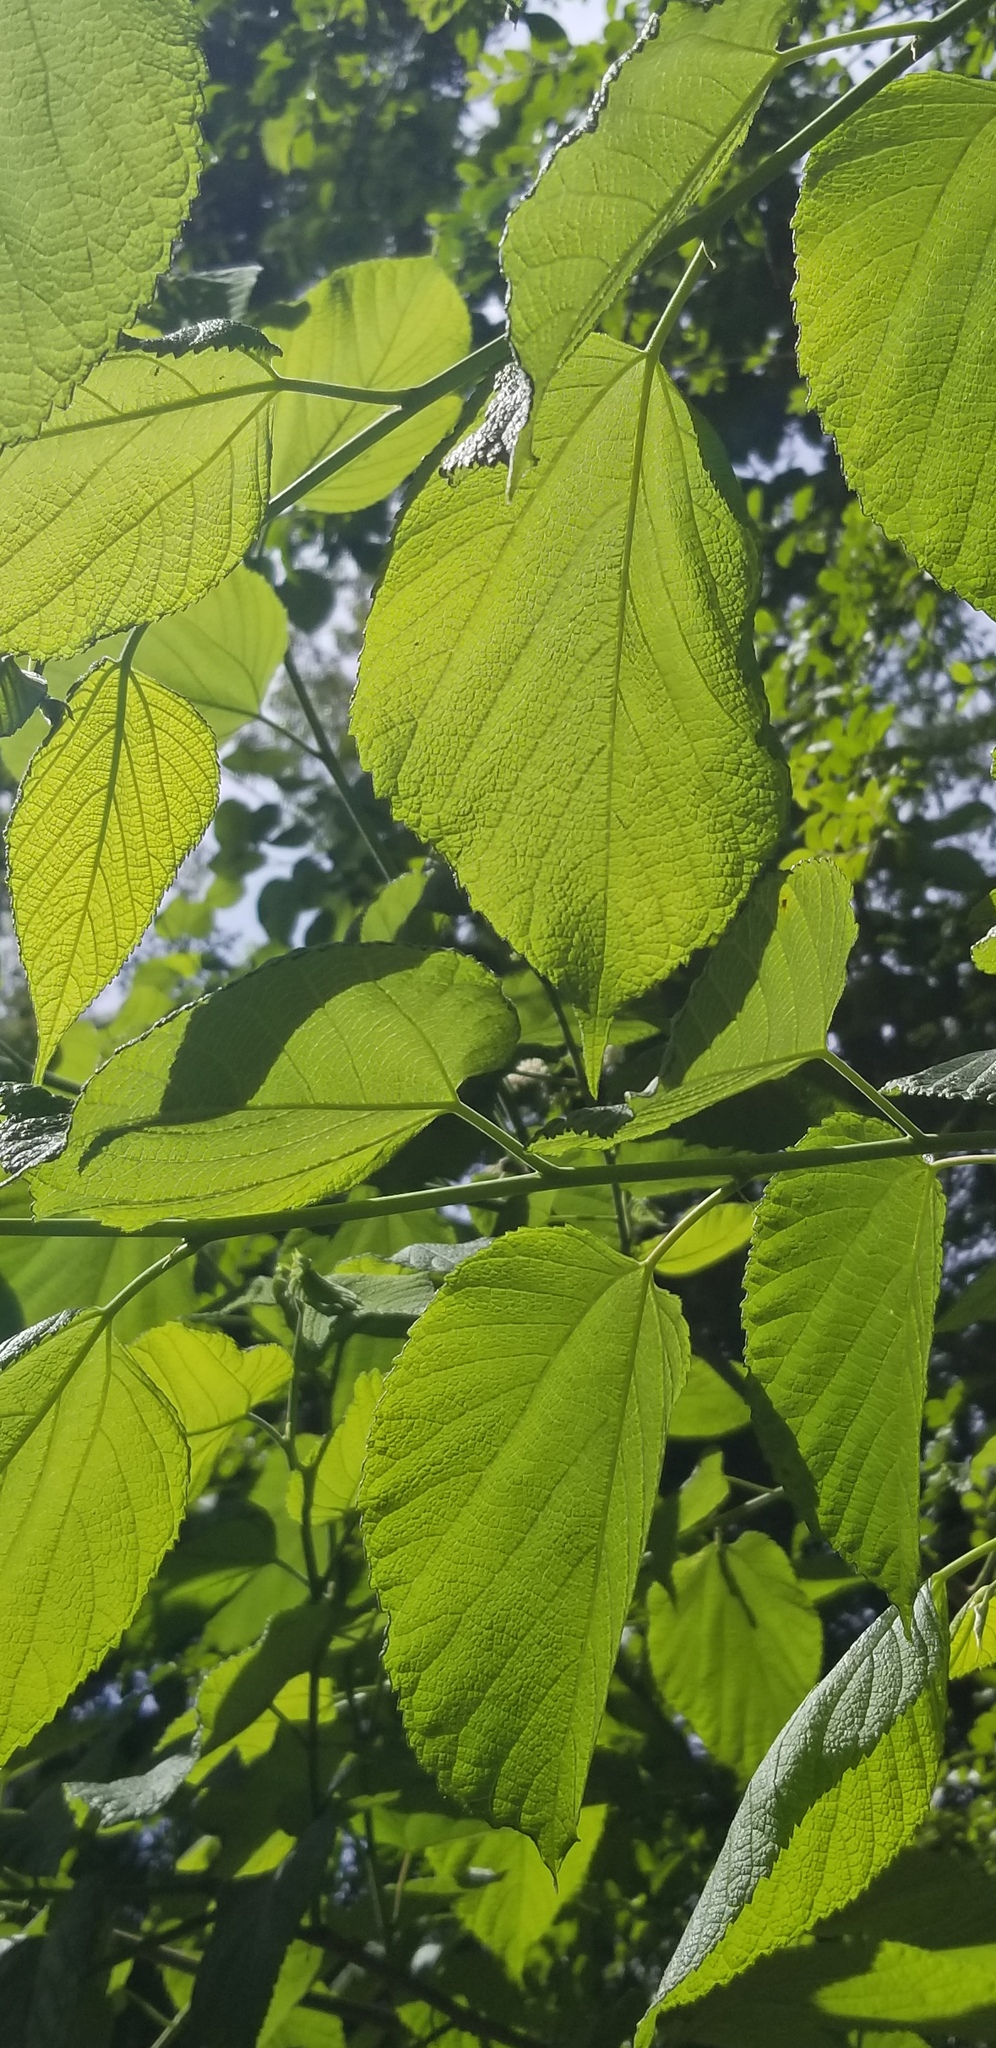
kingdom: Plantae
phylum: Tracheophyta
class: Magnoliopsida
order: Rosales
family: Moraceae
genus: Morus
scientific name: Morus rubra
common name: Red mulberry
